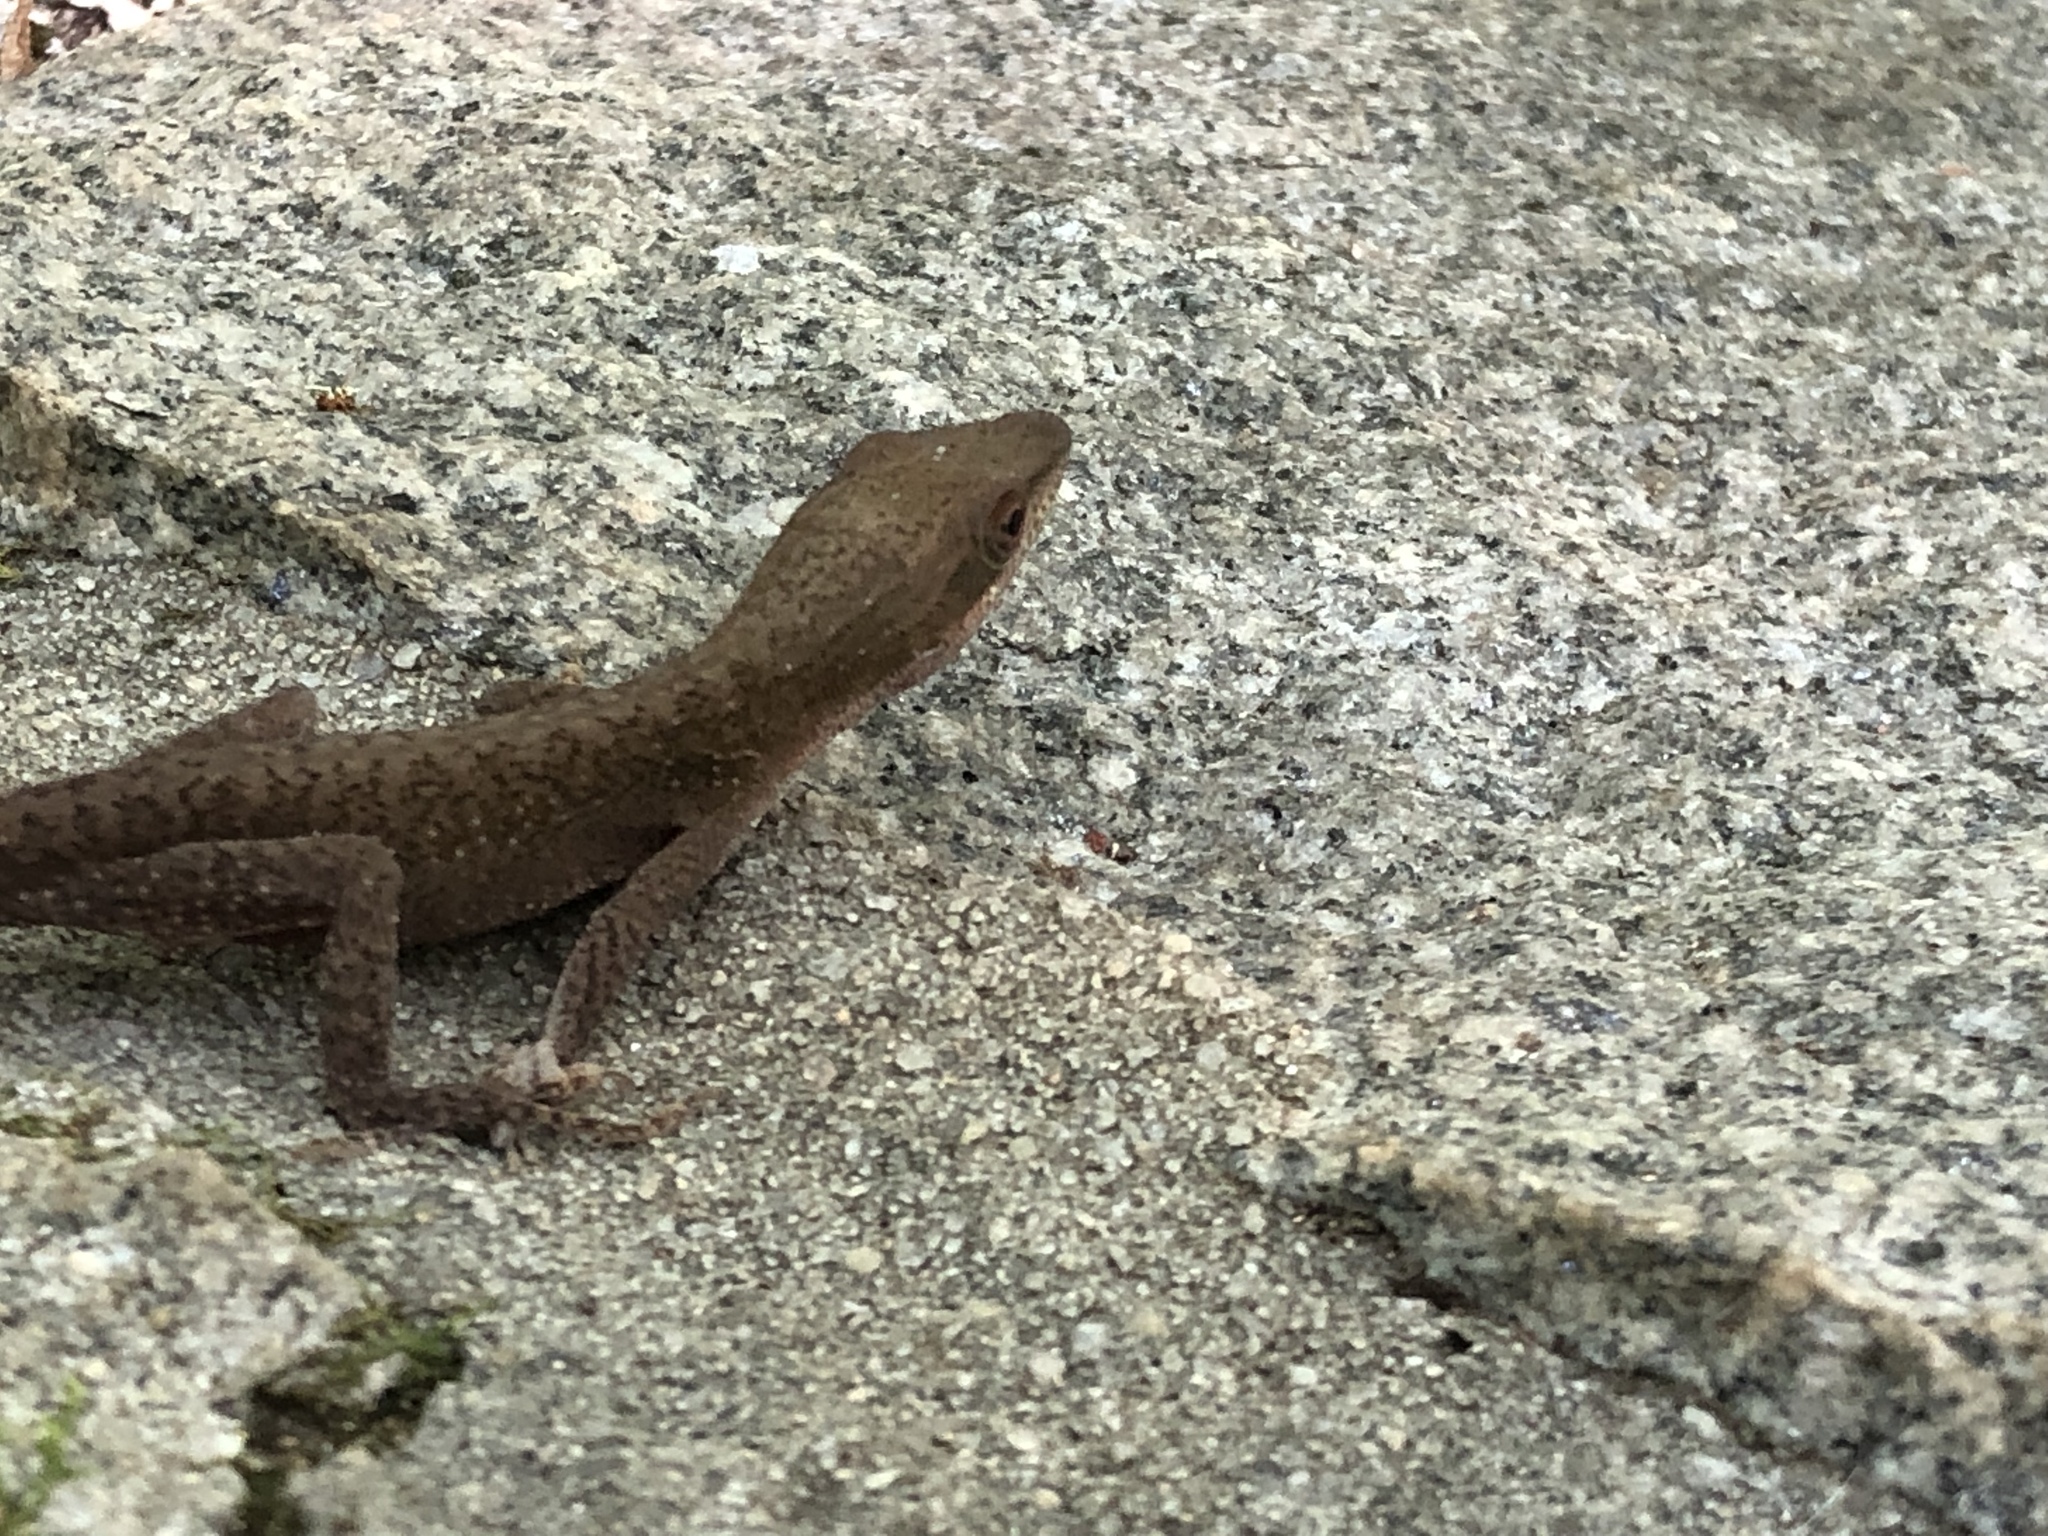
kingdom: Animalia
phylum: Chordata
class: Squamata
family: Dactyloidae
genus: Anolis
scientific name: Anolis carolinensis
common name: Green anole
